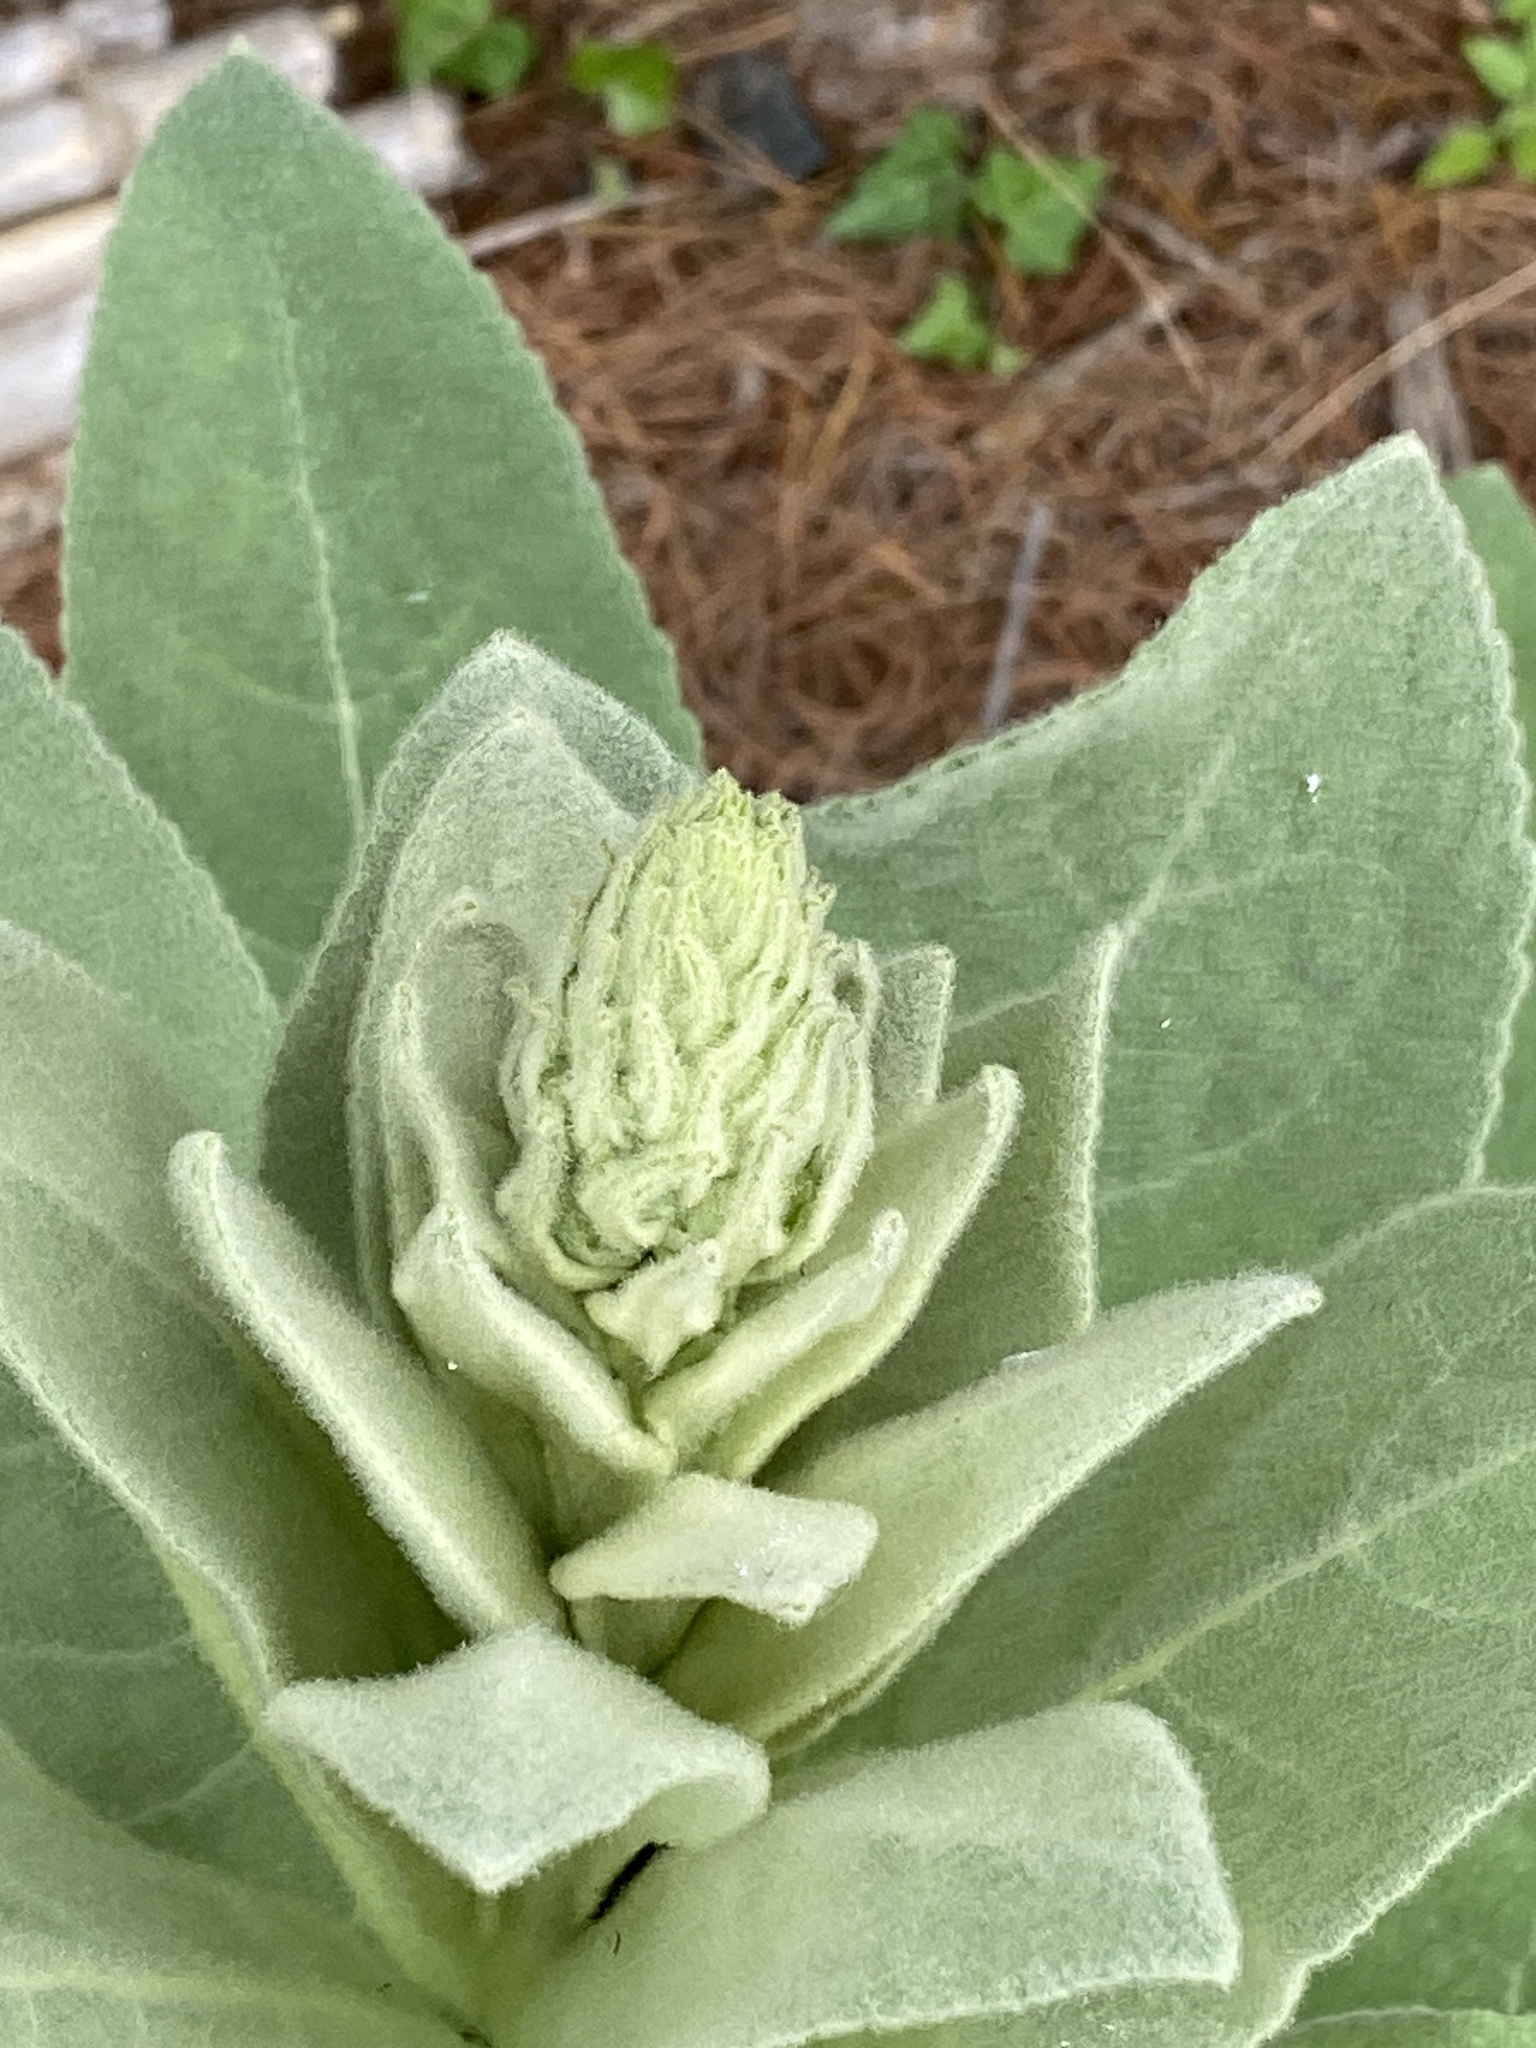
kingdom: Plantae
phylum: Tracheophyta
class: Magnoliopsida
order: Lamiales
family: Scrophulariaceae
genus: Verbascum
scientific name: Verbascum thapsus
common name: Common mullein
